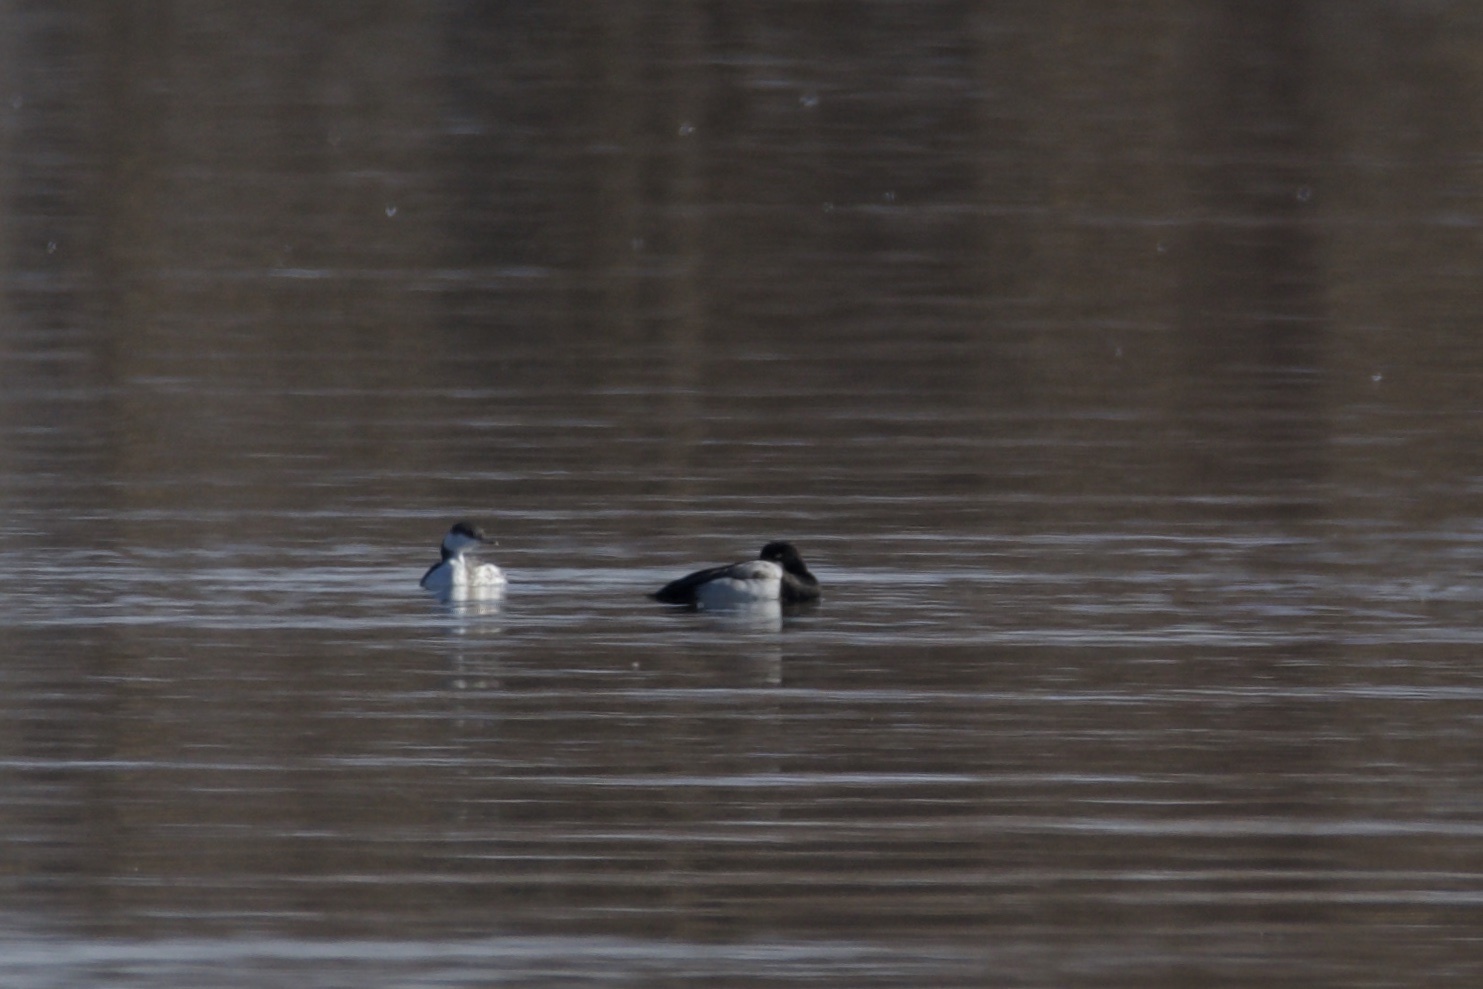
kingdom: Animalia
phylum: Chordata
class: Aves
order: Anseriformes
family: Anatidae
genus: Aythya
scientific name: Aythya affinis
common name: Lesser scaup
